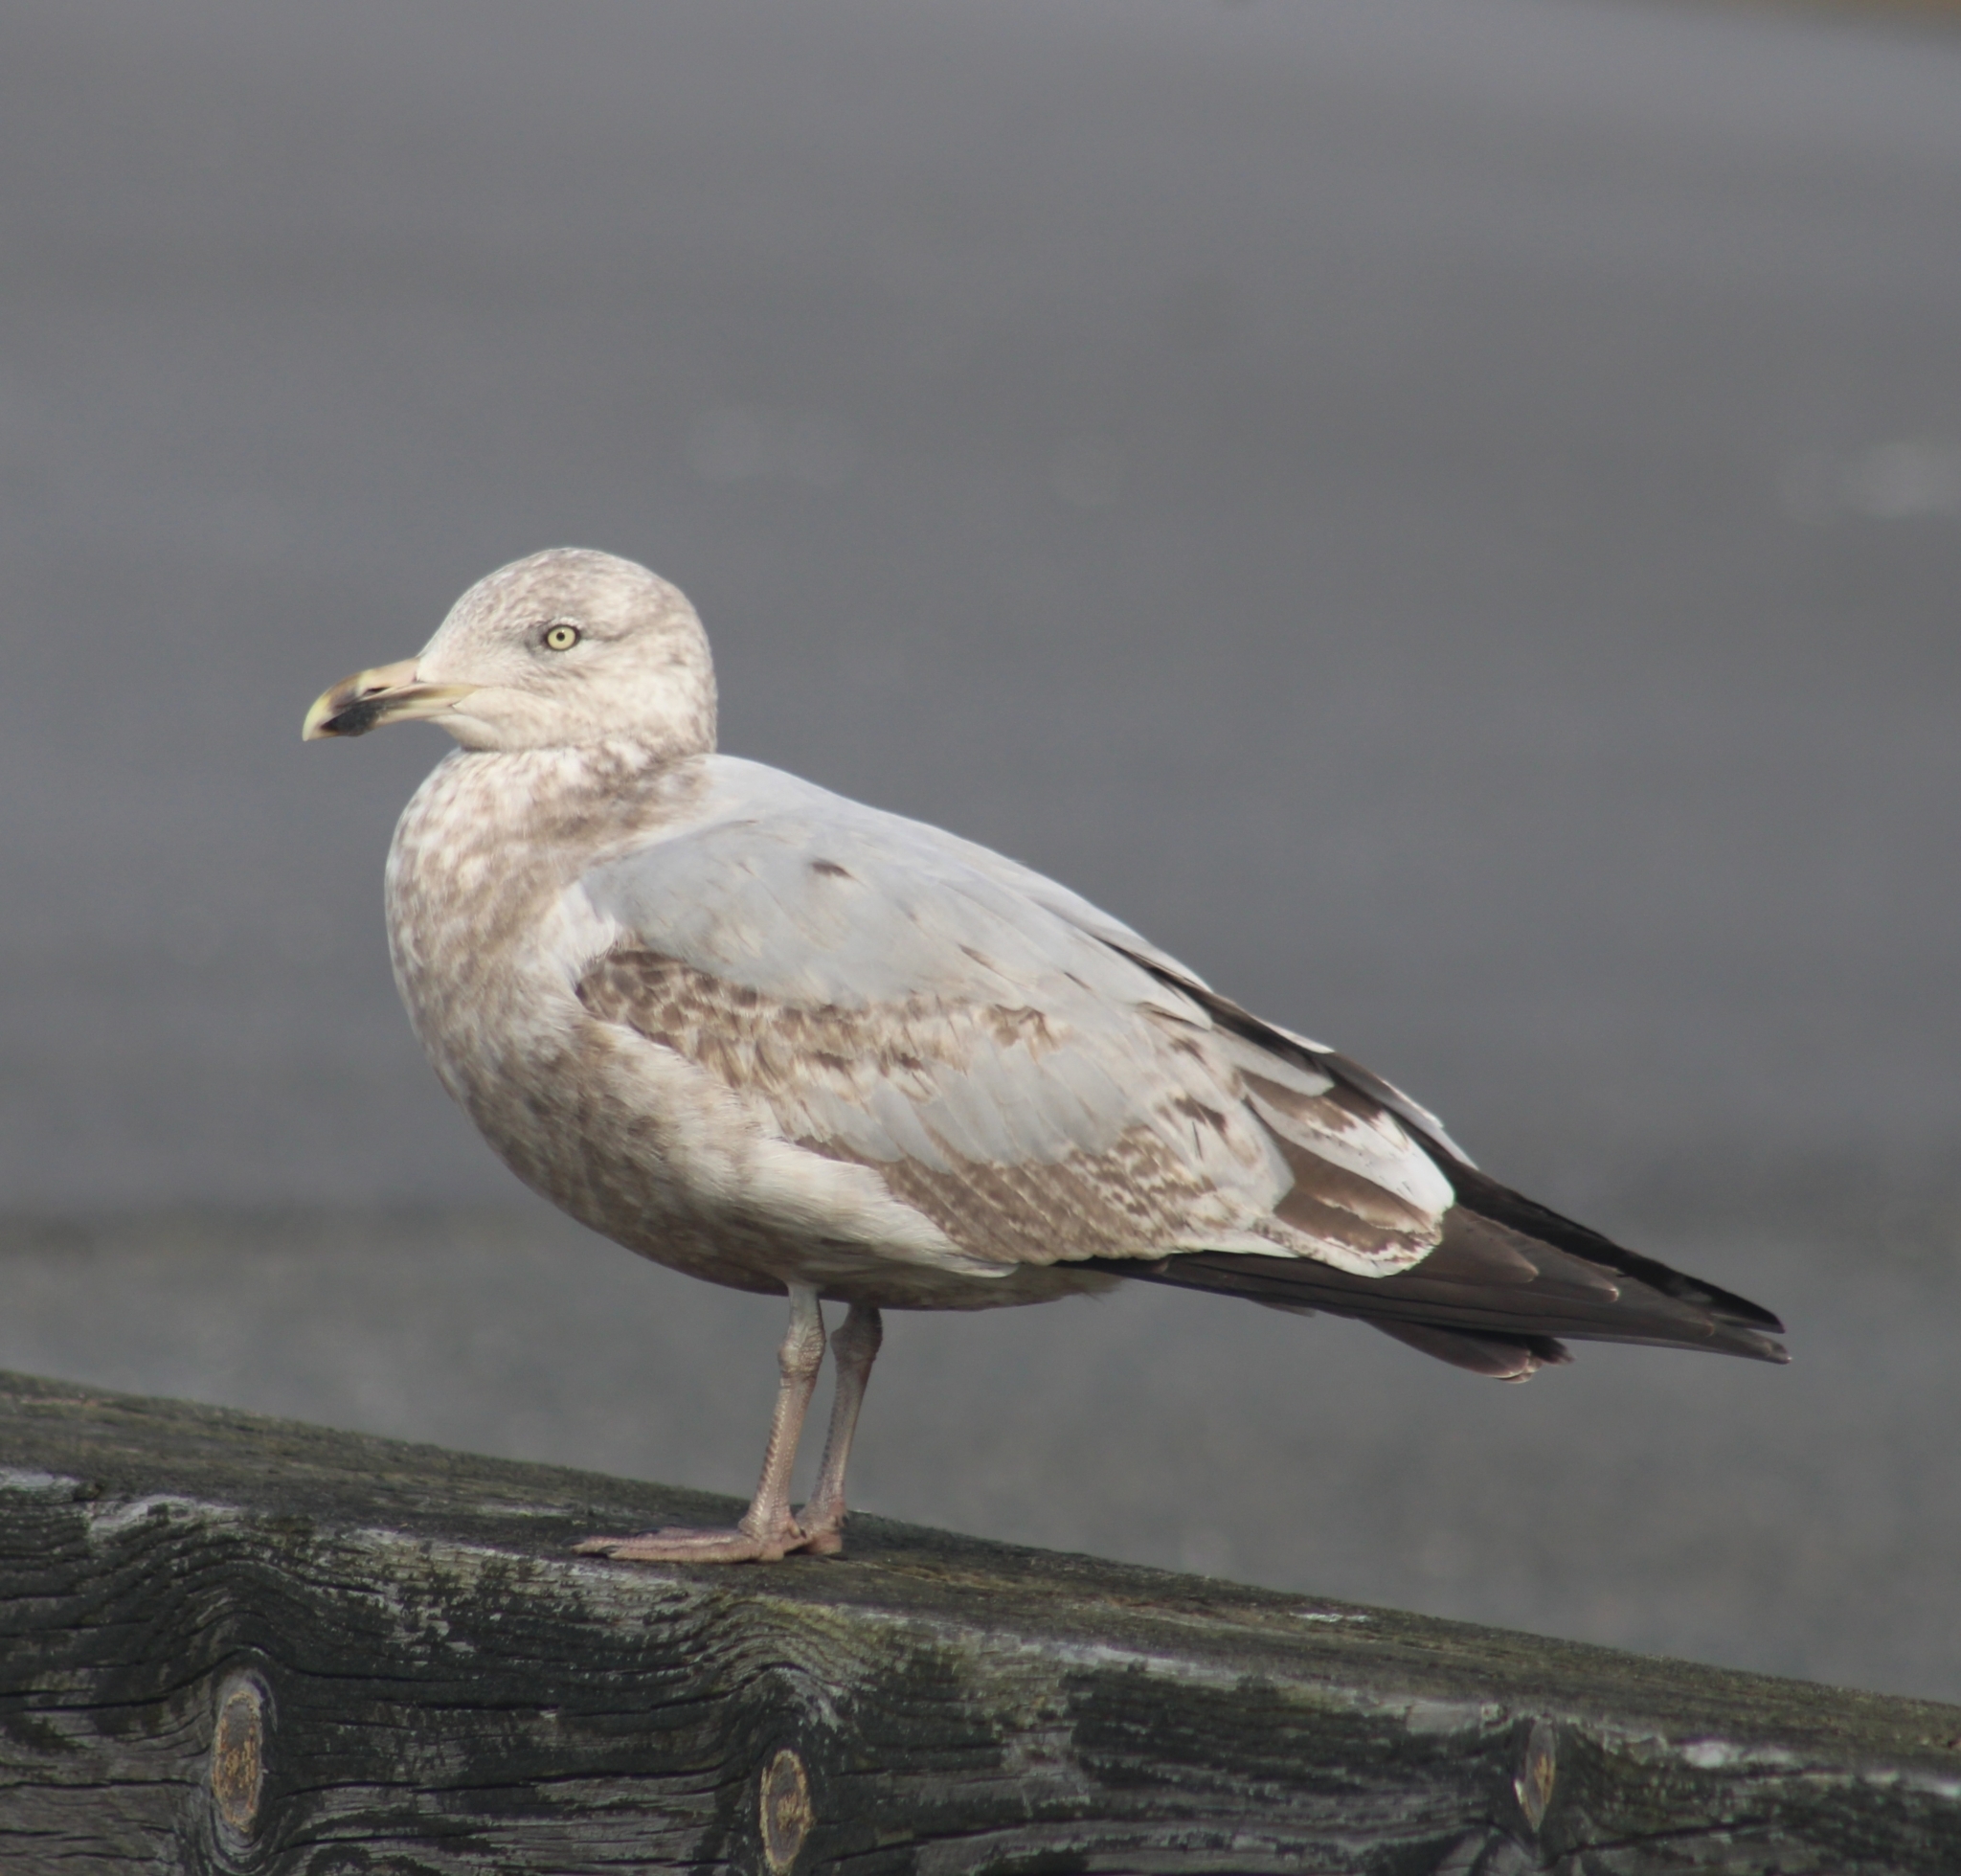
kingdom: Animalia
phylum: Chordata
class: Aves
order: Charadriiformes
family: Laridae
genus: Larus
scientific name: Larus argentatus
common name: Herring gull
